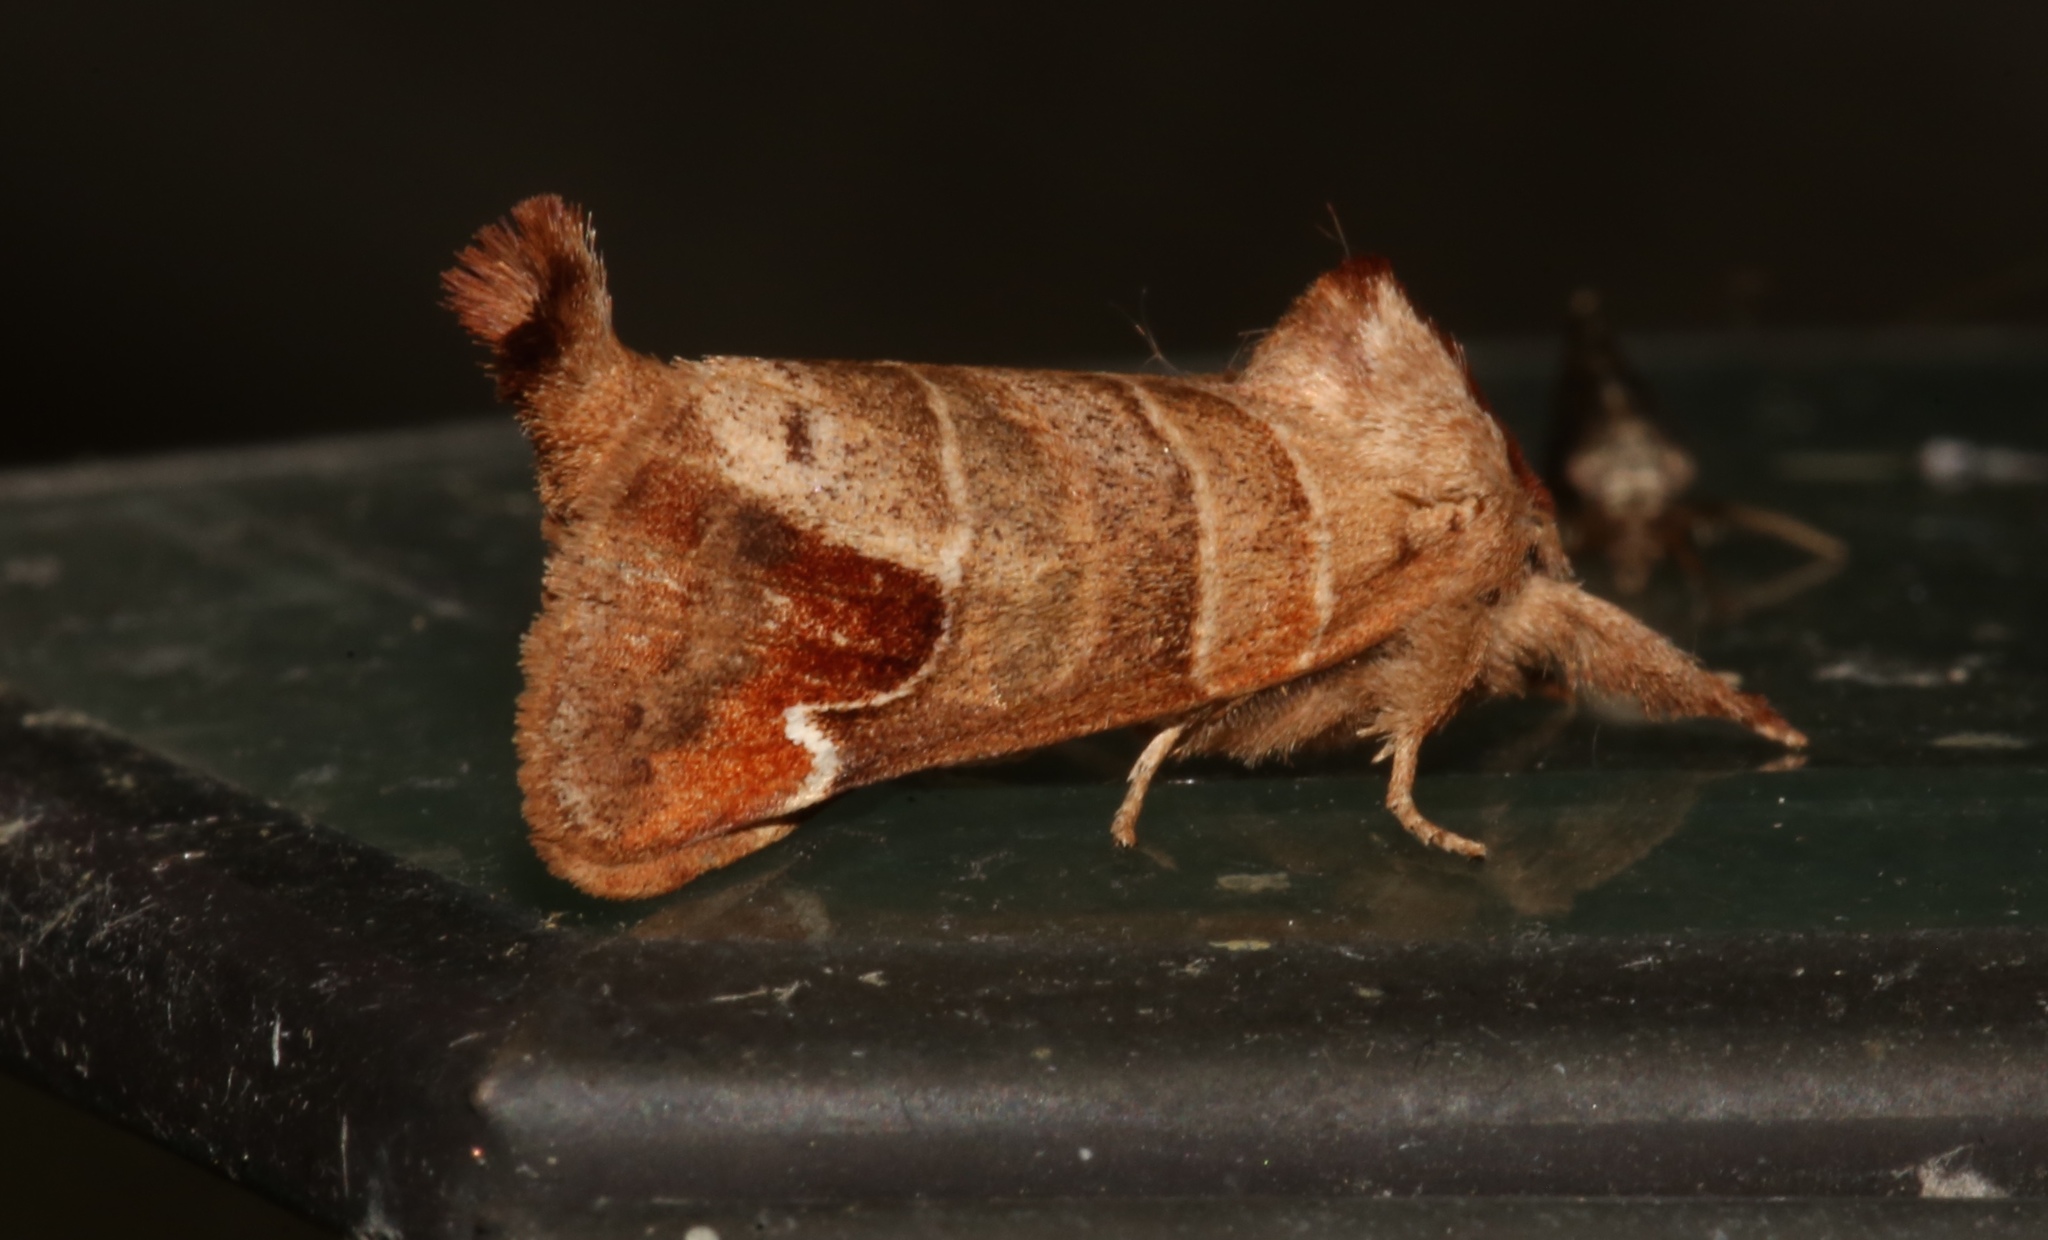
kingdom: Animalia
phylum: Arthropoda
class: Insecta
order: Lepidoptera
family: Notodontidae
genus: Clostera
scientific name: Clostera albosigma
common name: Sigmoid prominent
